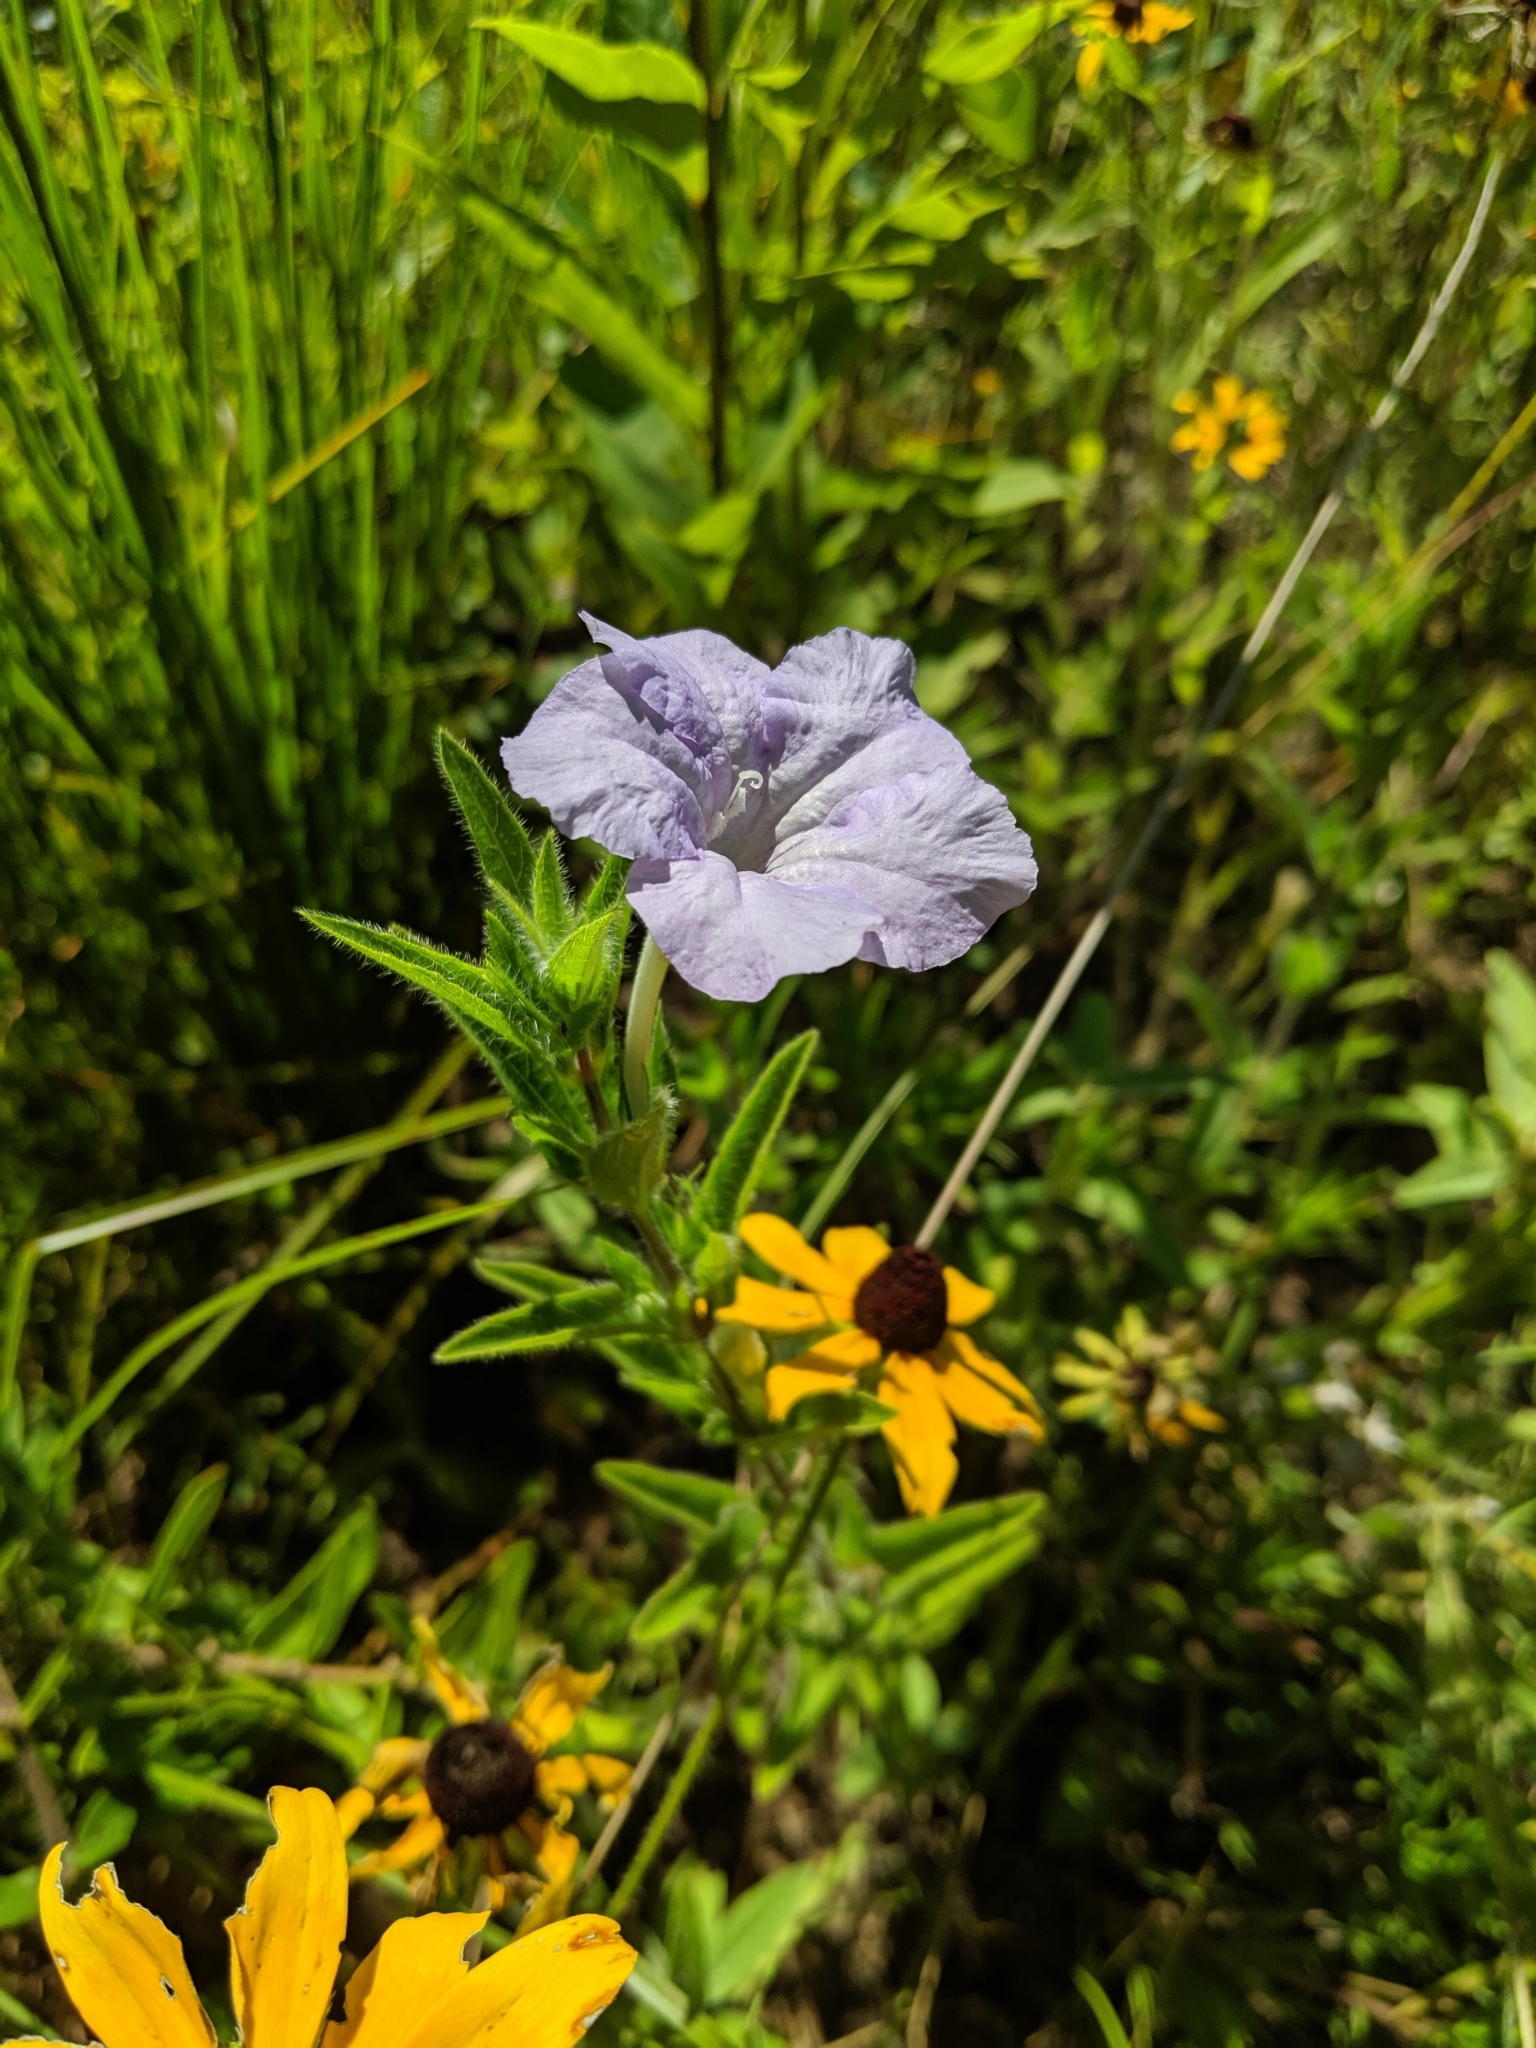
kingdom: Plantae
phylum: Tracheophyta
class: Magnoliopsida
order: Lamiales
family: Acanthaceae
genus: Ruellia
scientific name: Ruellia humilis
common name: Fringe-leaf ruellia
